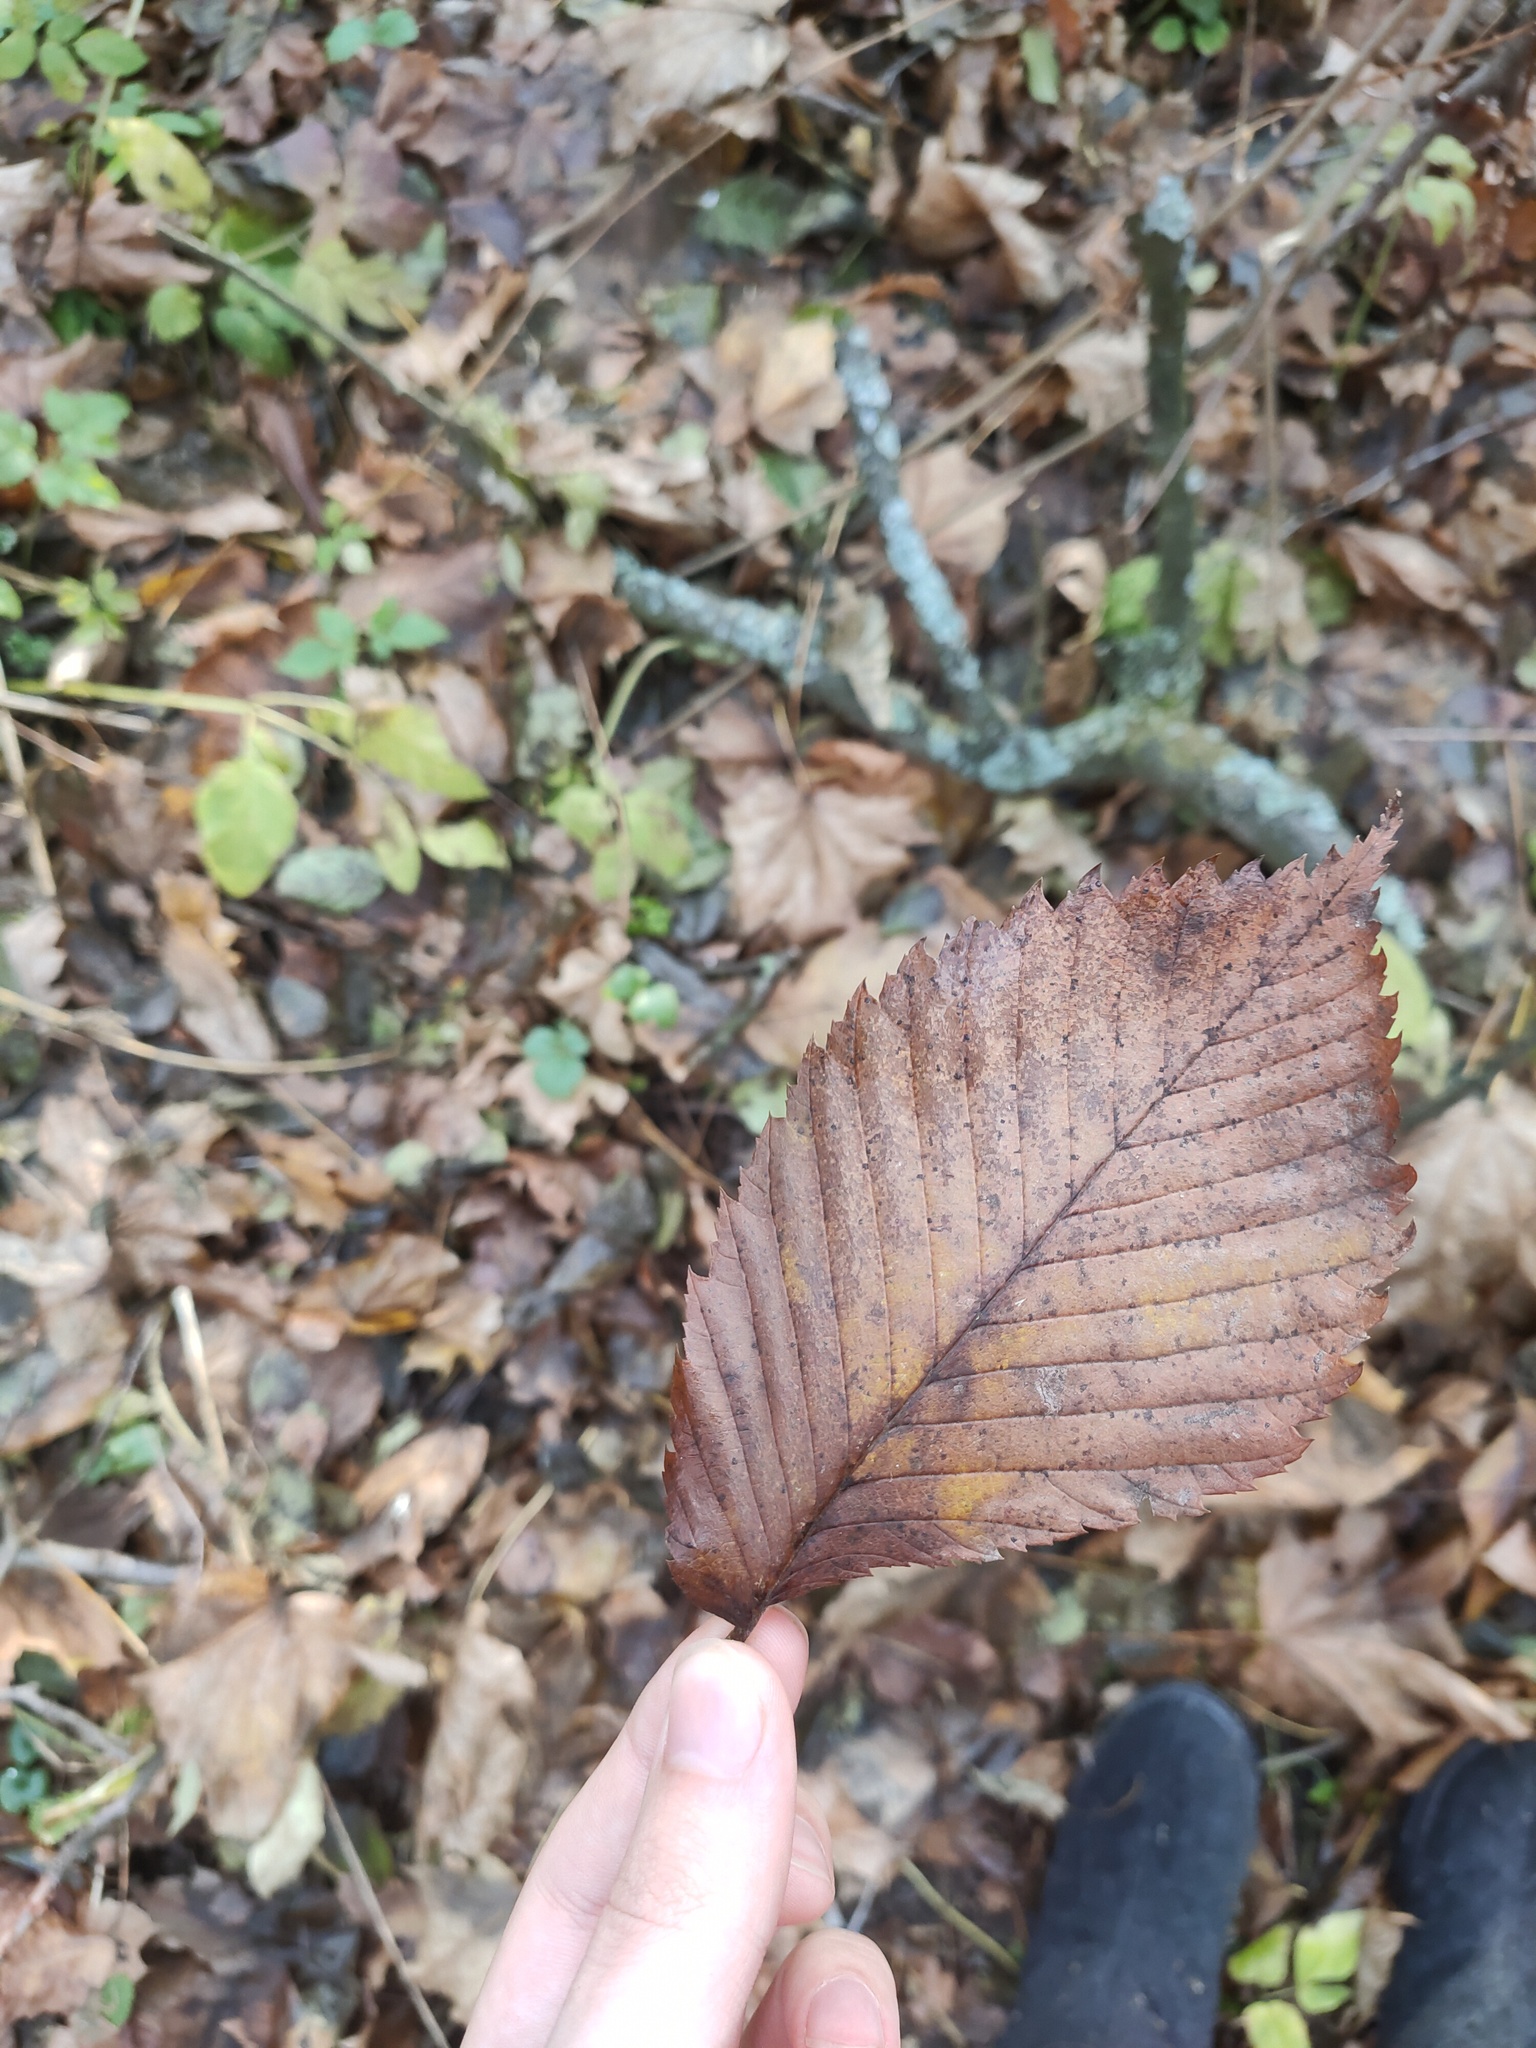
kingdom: Plantae
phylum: Tracheophyta
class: Magnoliopsida
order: Rosales
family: Ulmaceae
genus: Ulmus
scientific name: Ulmus laevis
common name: European white-elm
